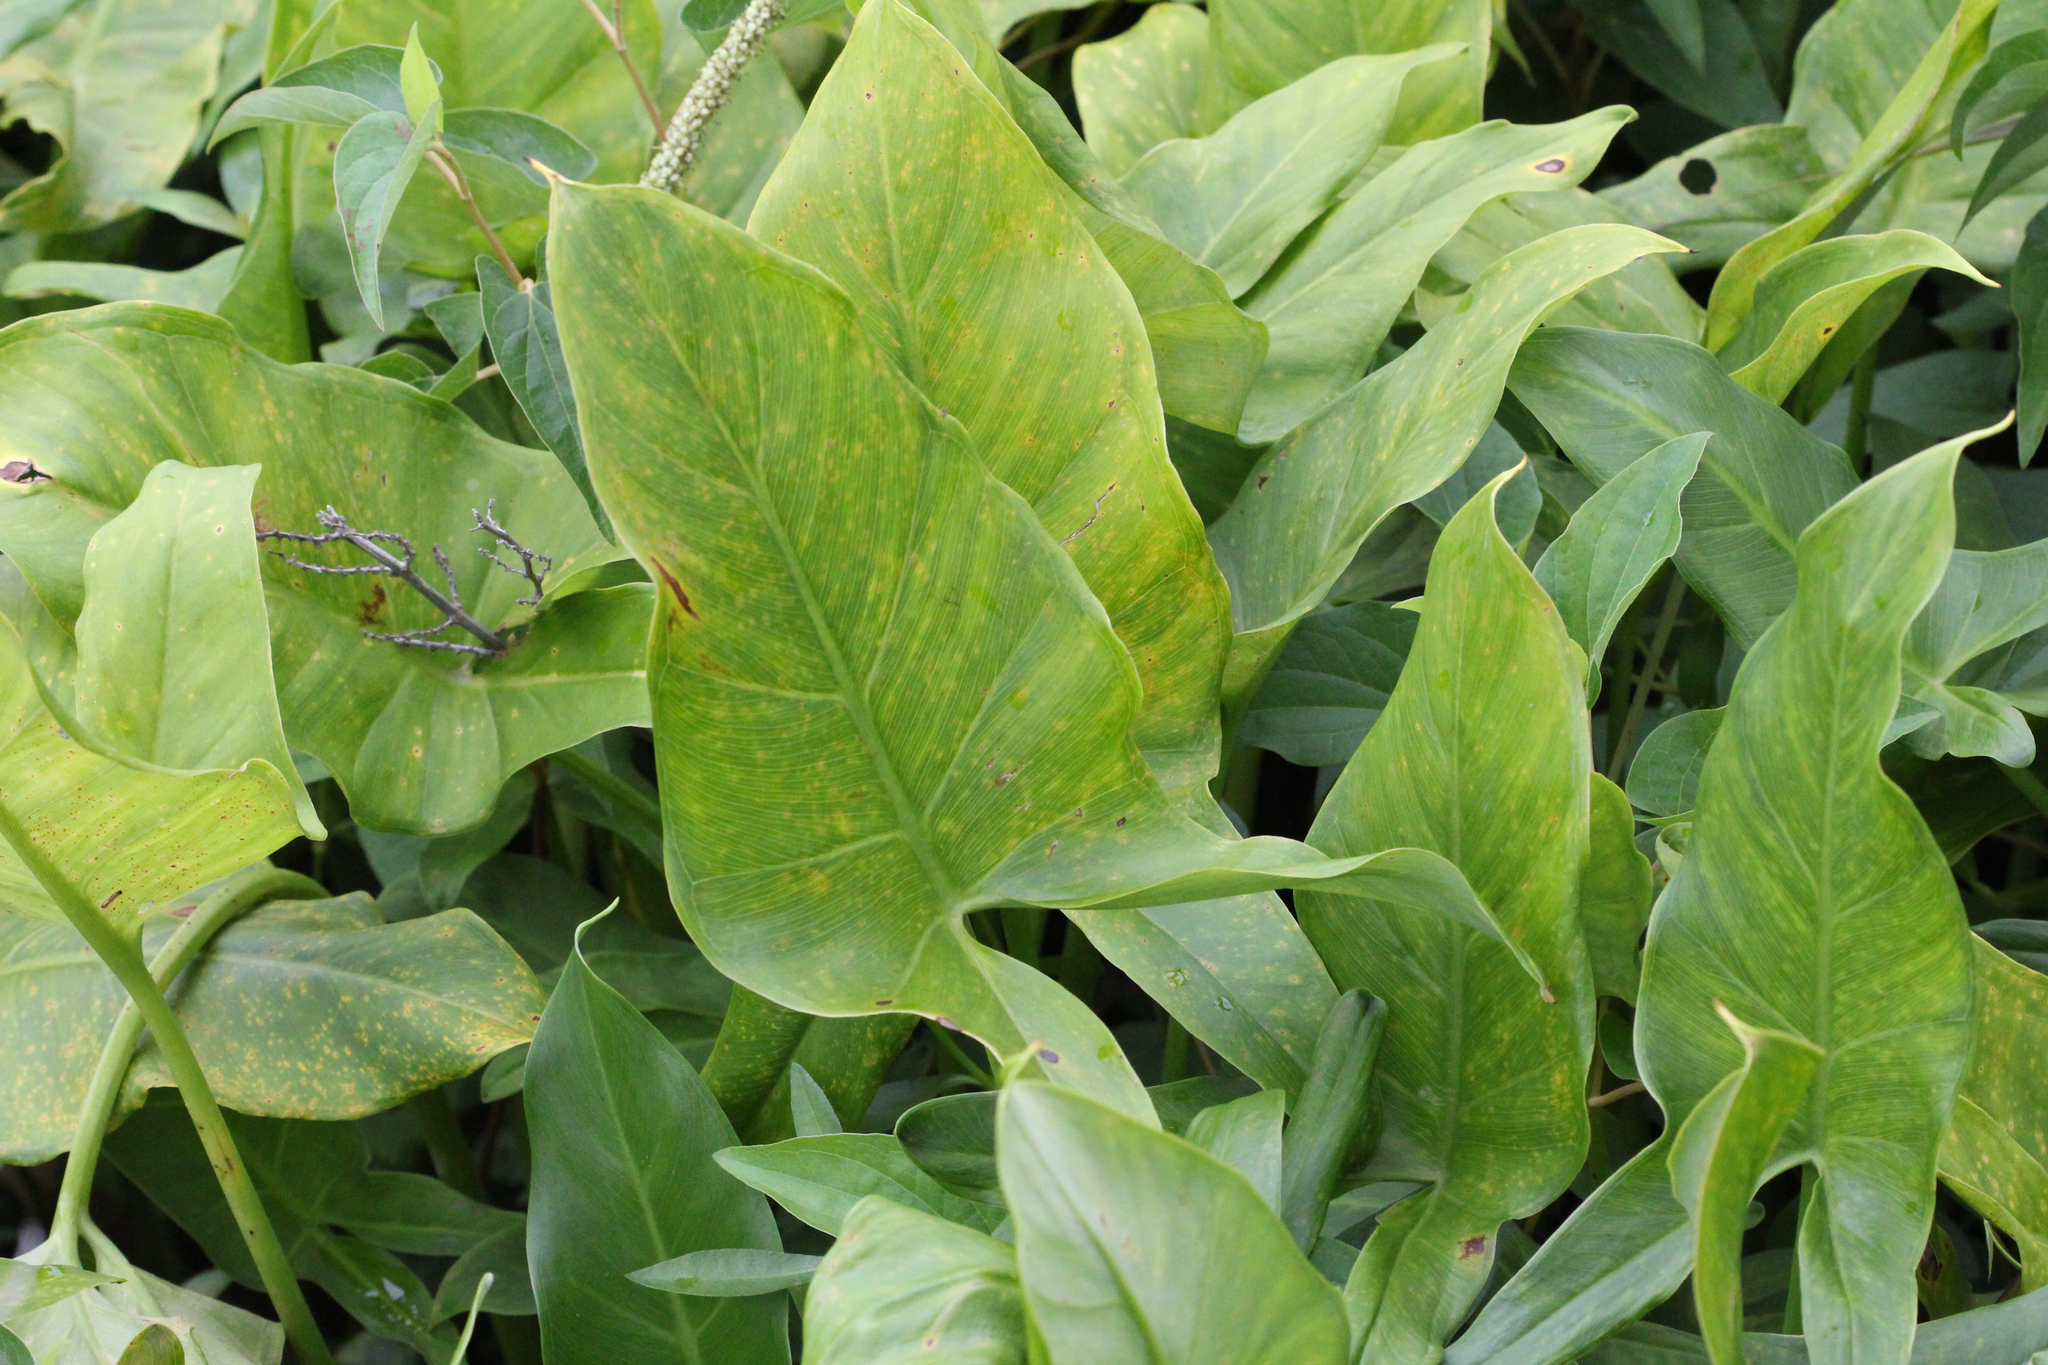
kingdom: Plantae
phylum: Tracheophyta
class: Liliopsida
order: Alismatales
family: Araceae
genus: Peltandra
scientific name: Peltandra virginica
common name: Arrow arum
